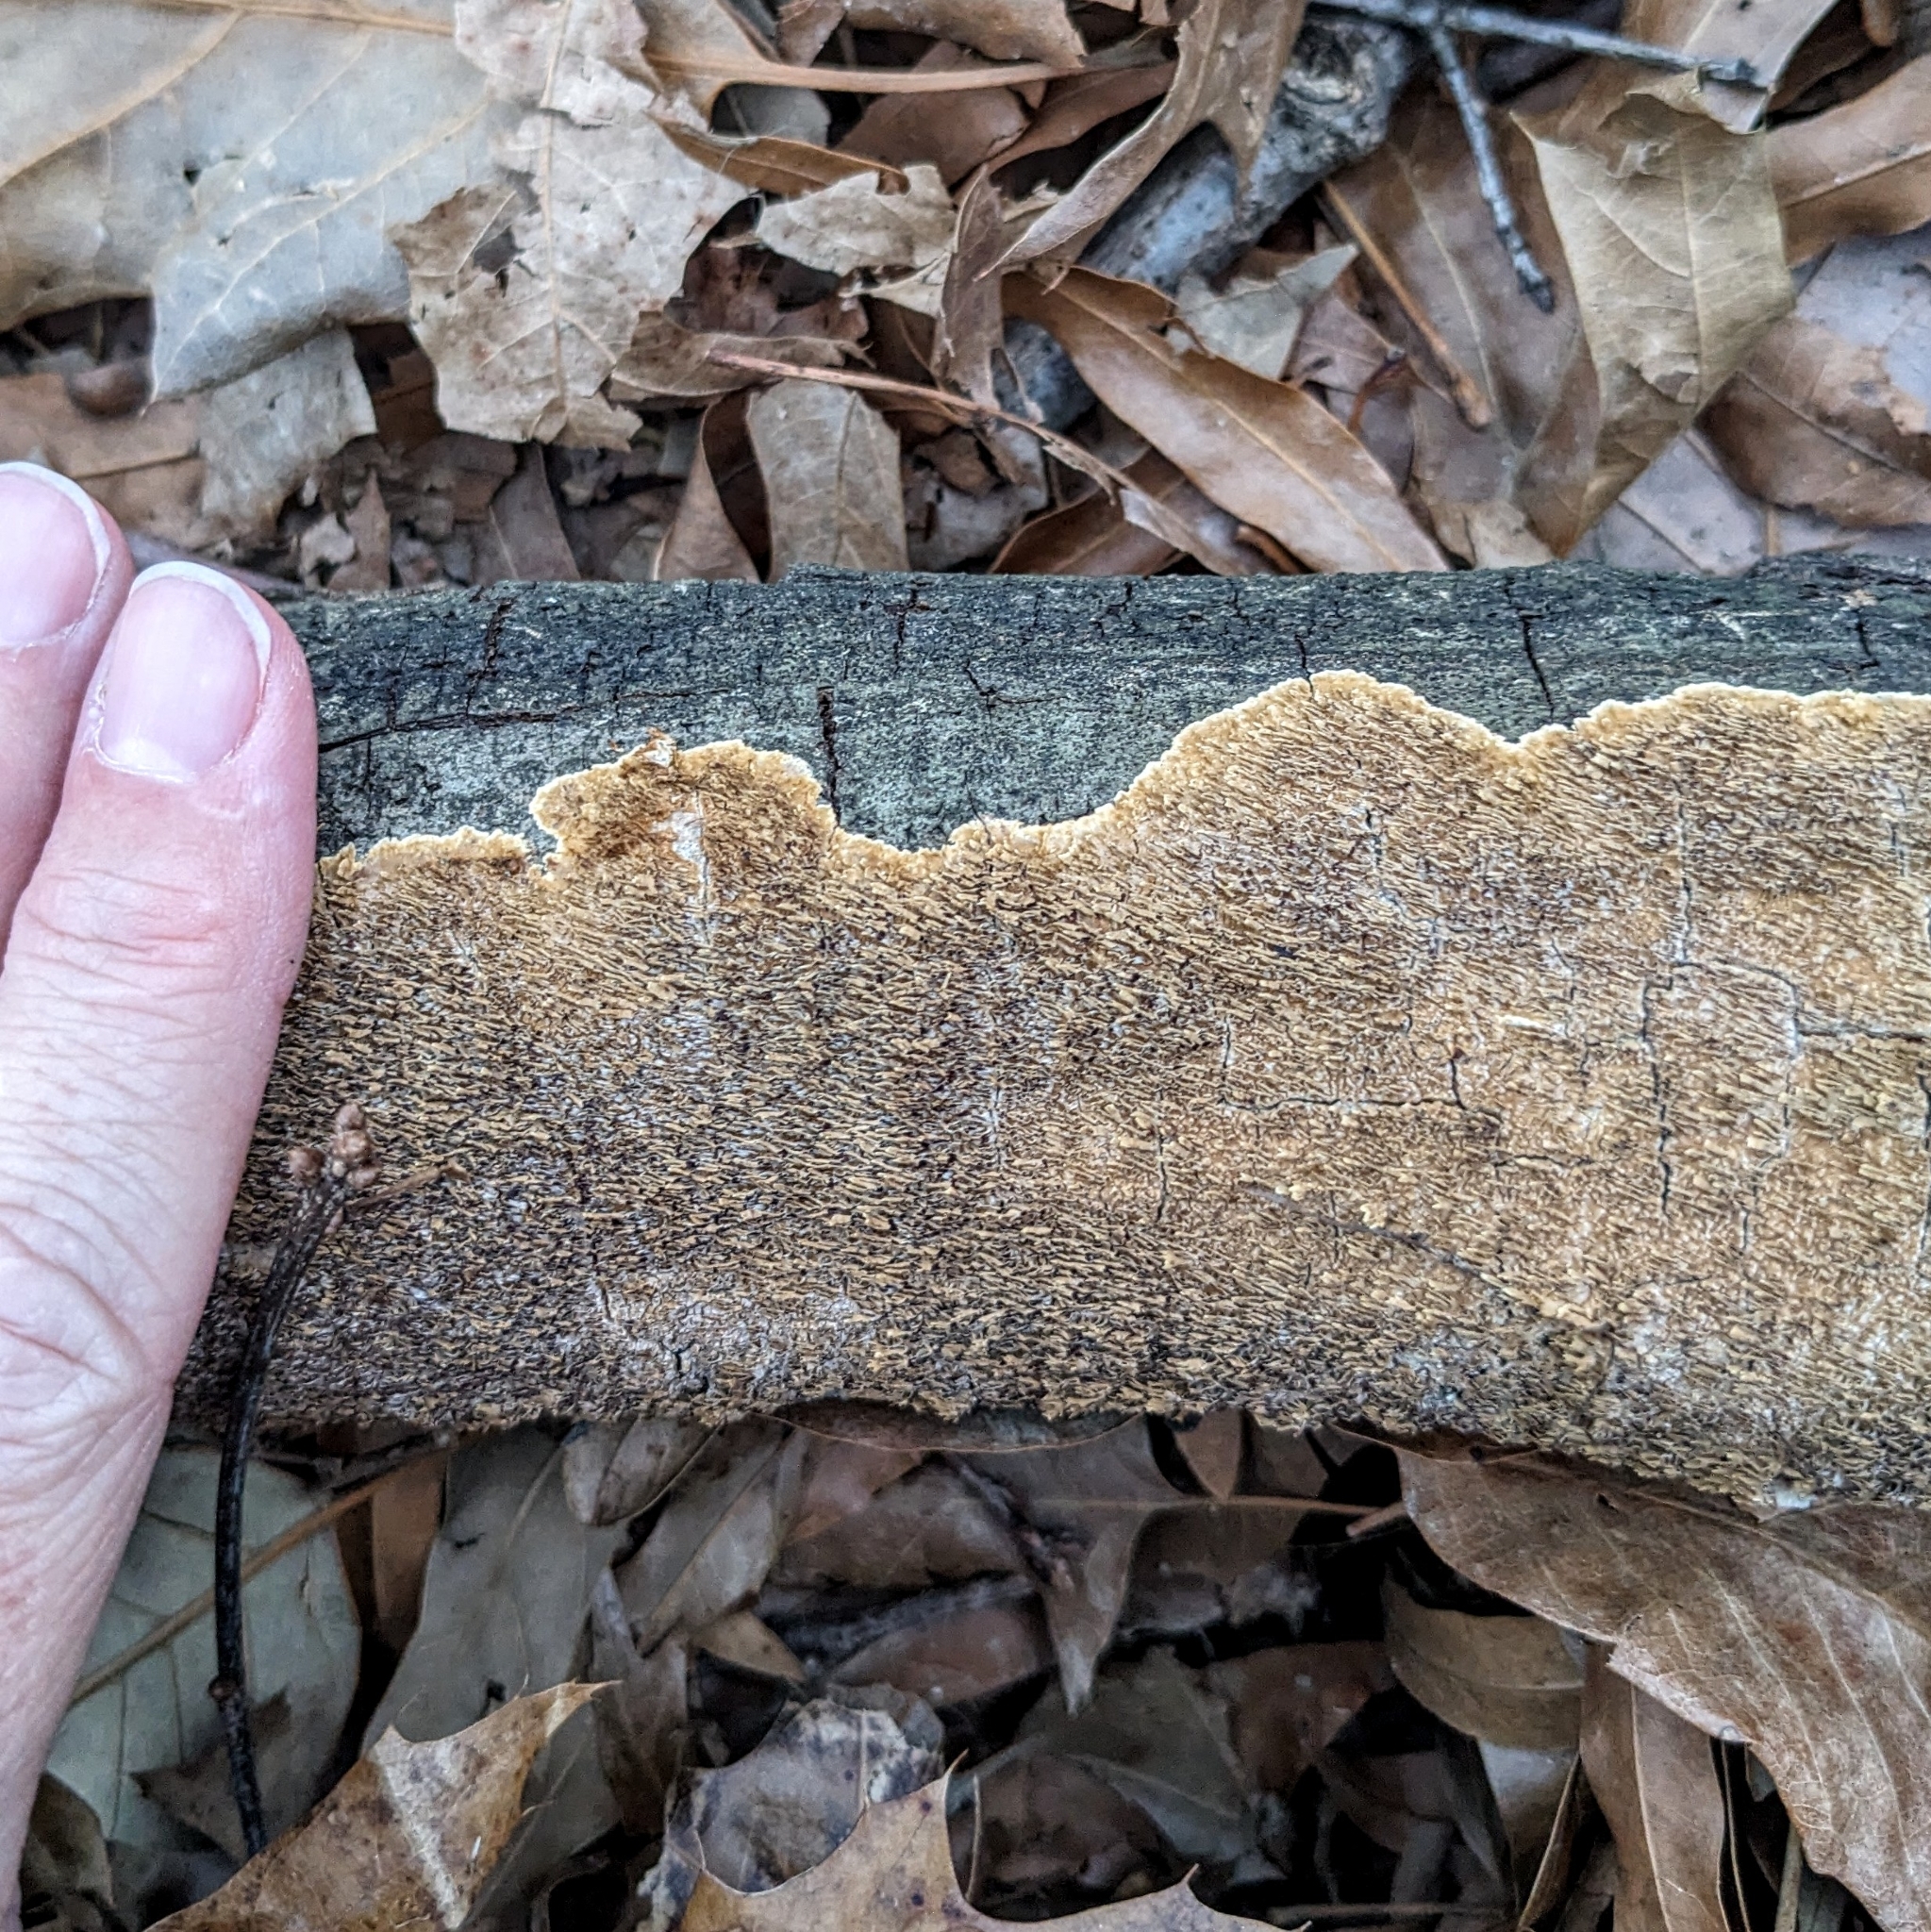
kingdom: Fungi
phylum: Basidiomycota
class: Agaricomycetes
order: Polyporales
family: Irpicaceae
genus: Irpex
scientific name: Irpex lacteus
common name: Milk-white toothed polypore
